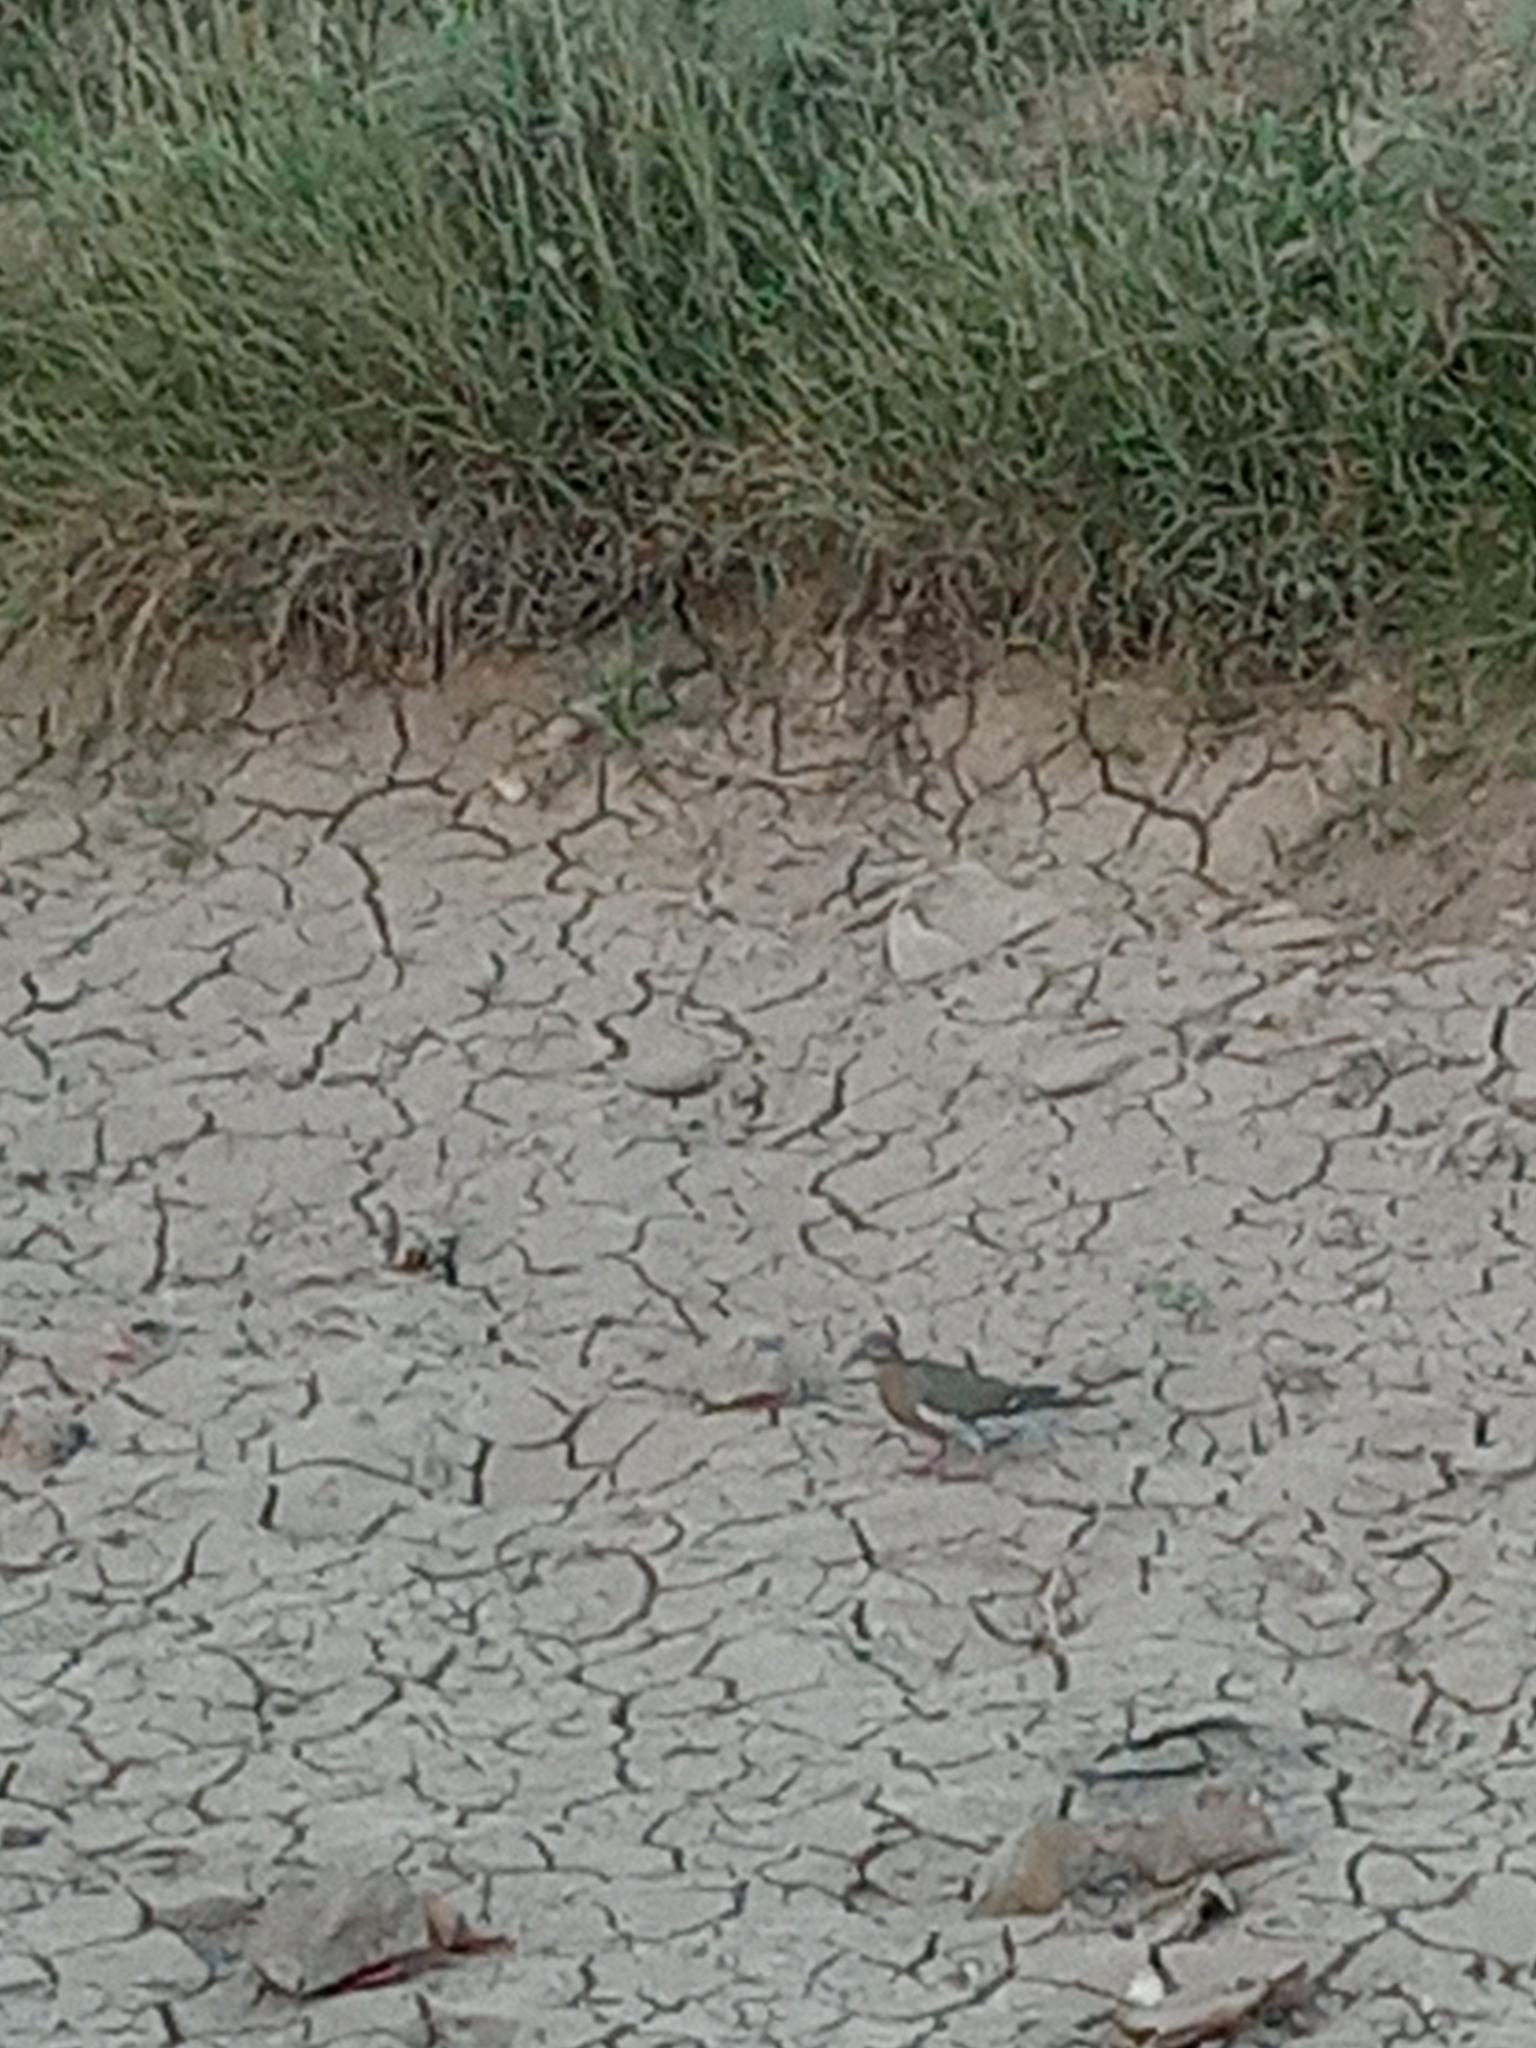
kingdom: Animalia
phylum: Chordata
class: Aves
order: Columbiformes
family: Columbidae
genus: Zenaida
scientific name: Zenaida asiatica
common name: White-winged dove
